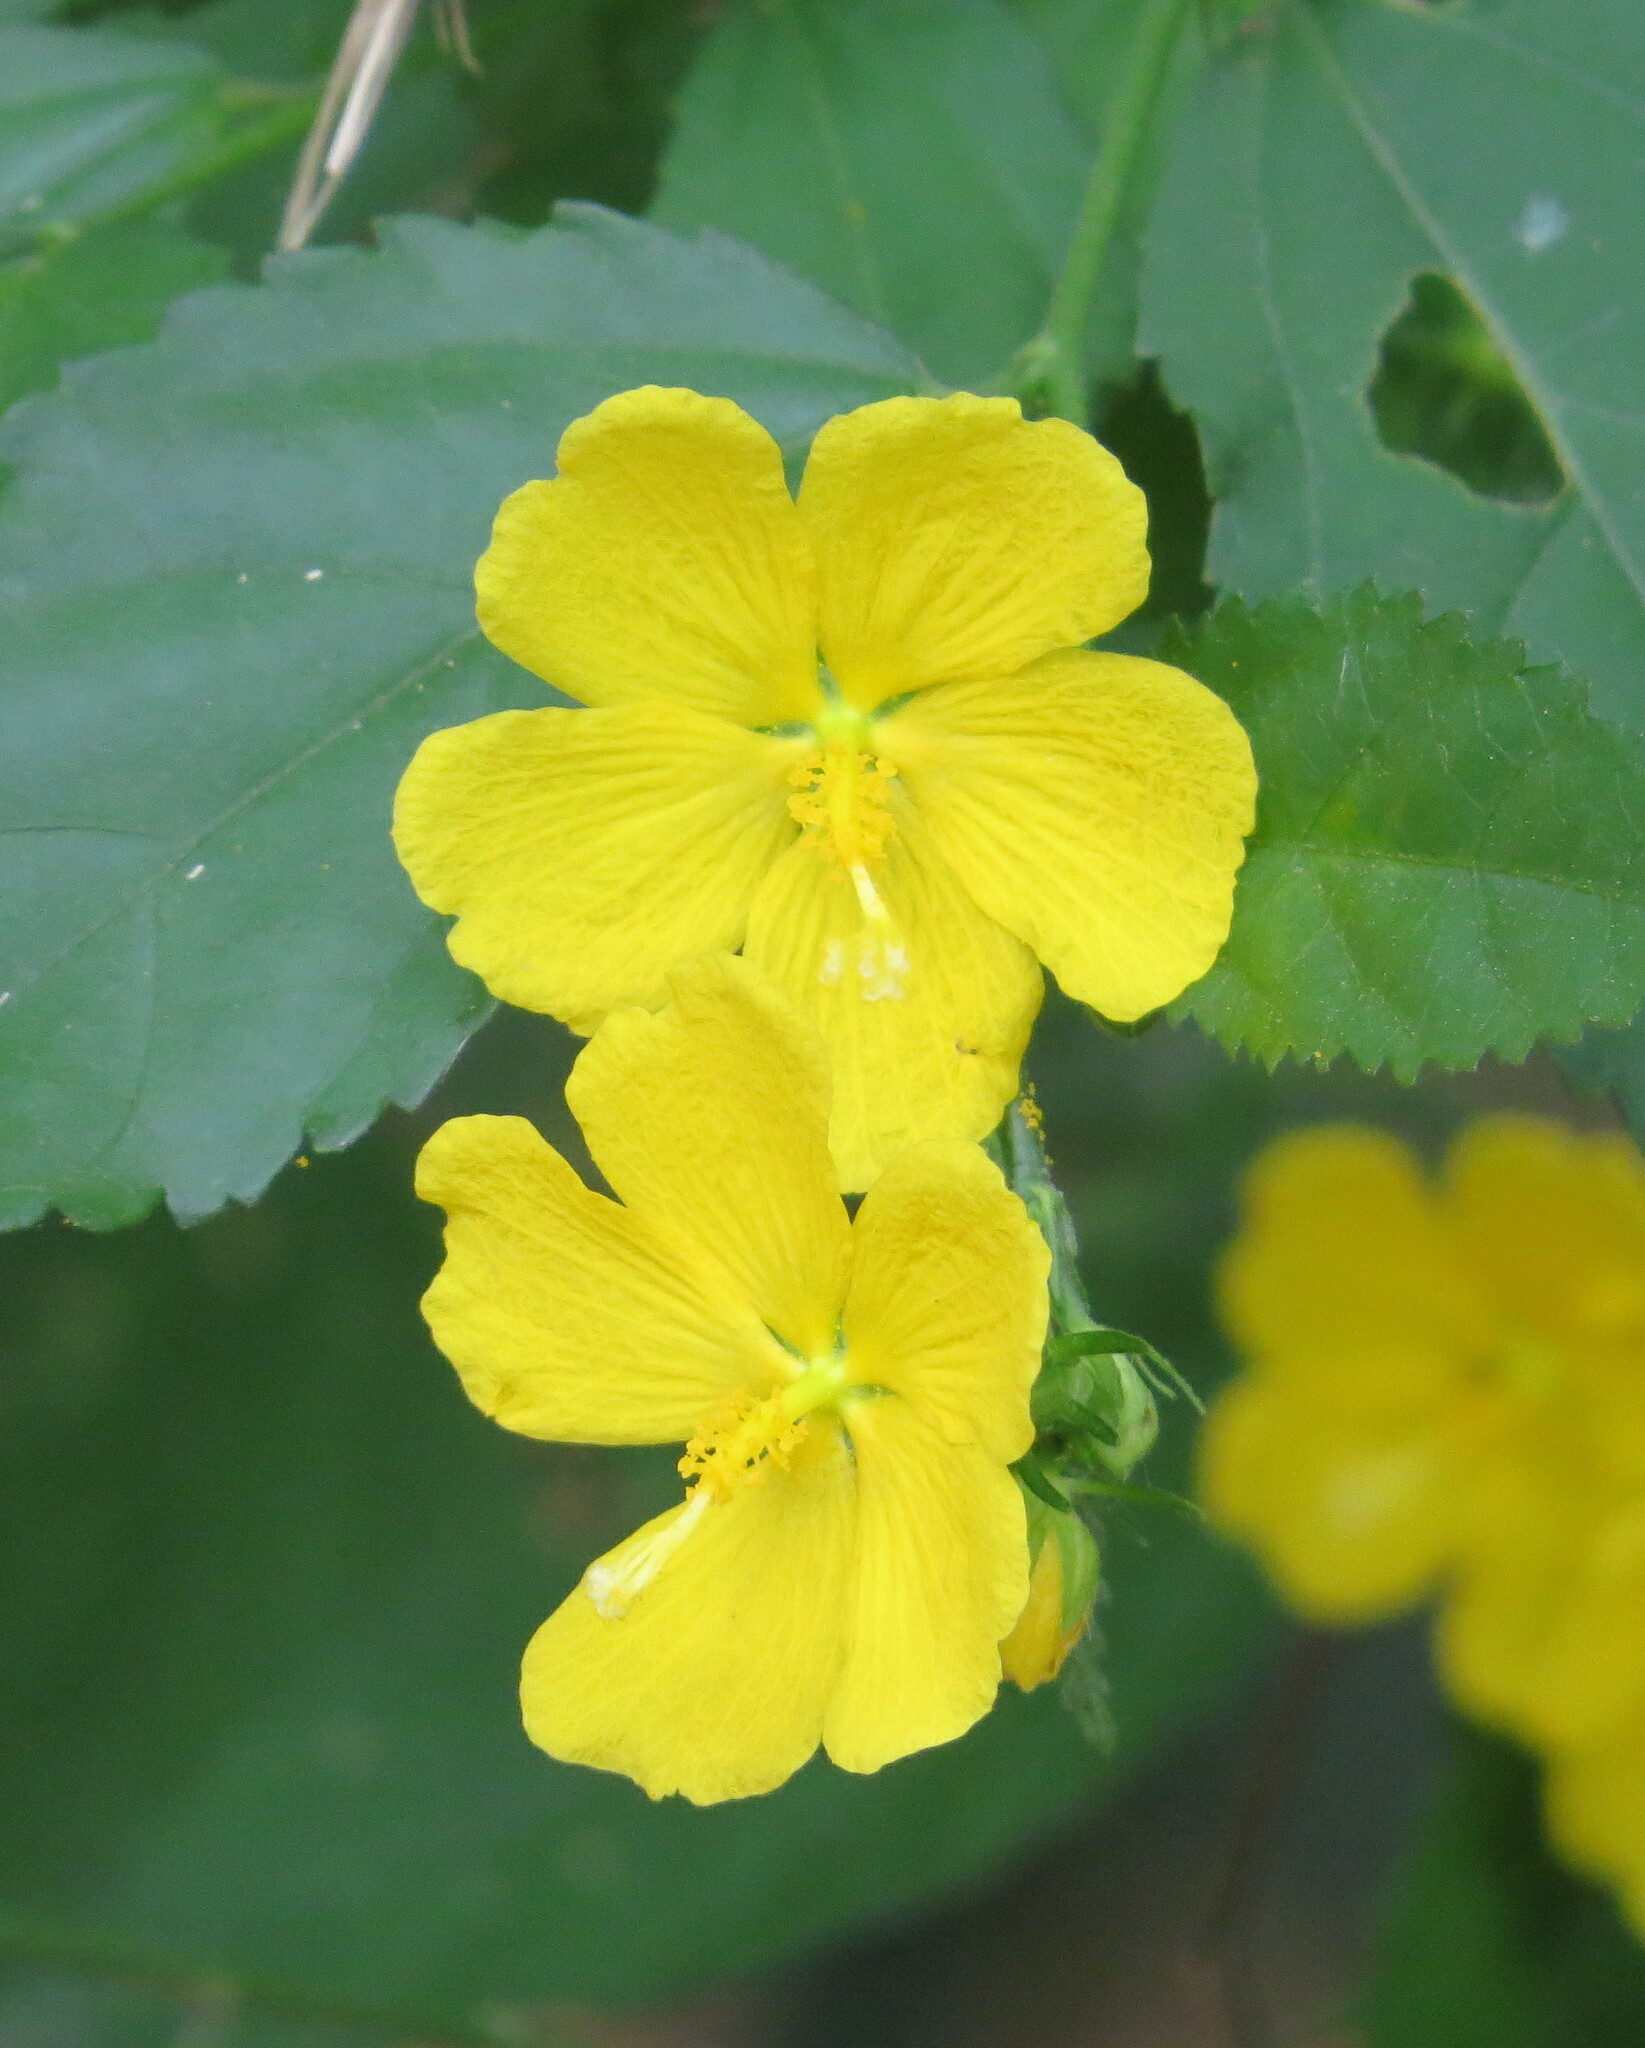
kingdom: Plantae
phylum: Tracheophyta
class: Magnoliopsida
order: Malvales
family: Malvaceae
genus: Pavonia
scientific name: Pavonia sepium
